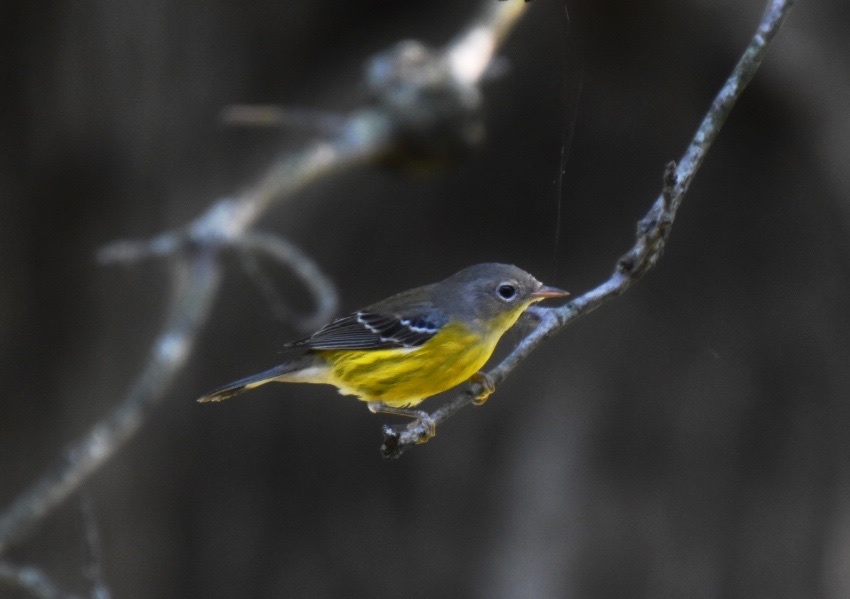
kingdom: Animalia
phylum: Chordata
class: Aves
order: Passeriformes
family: Parulidae
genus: Setophaga
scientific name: Setophaga magnolia
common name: Magnolia warbler
